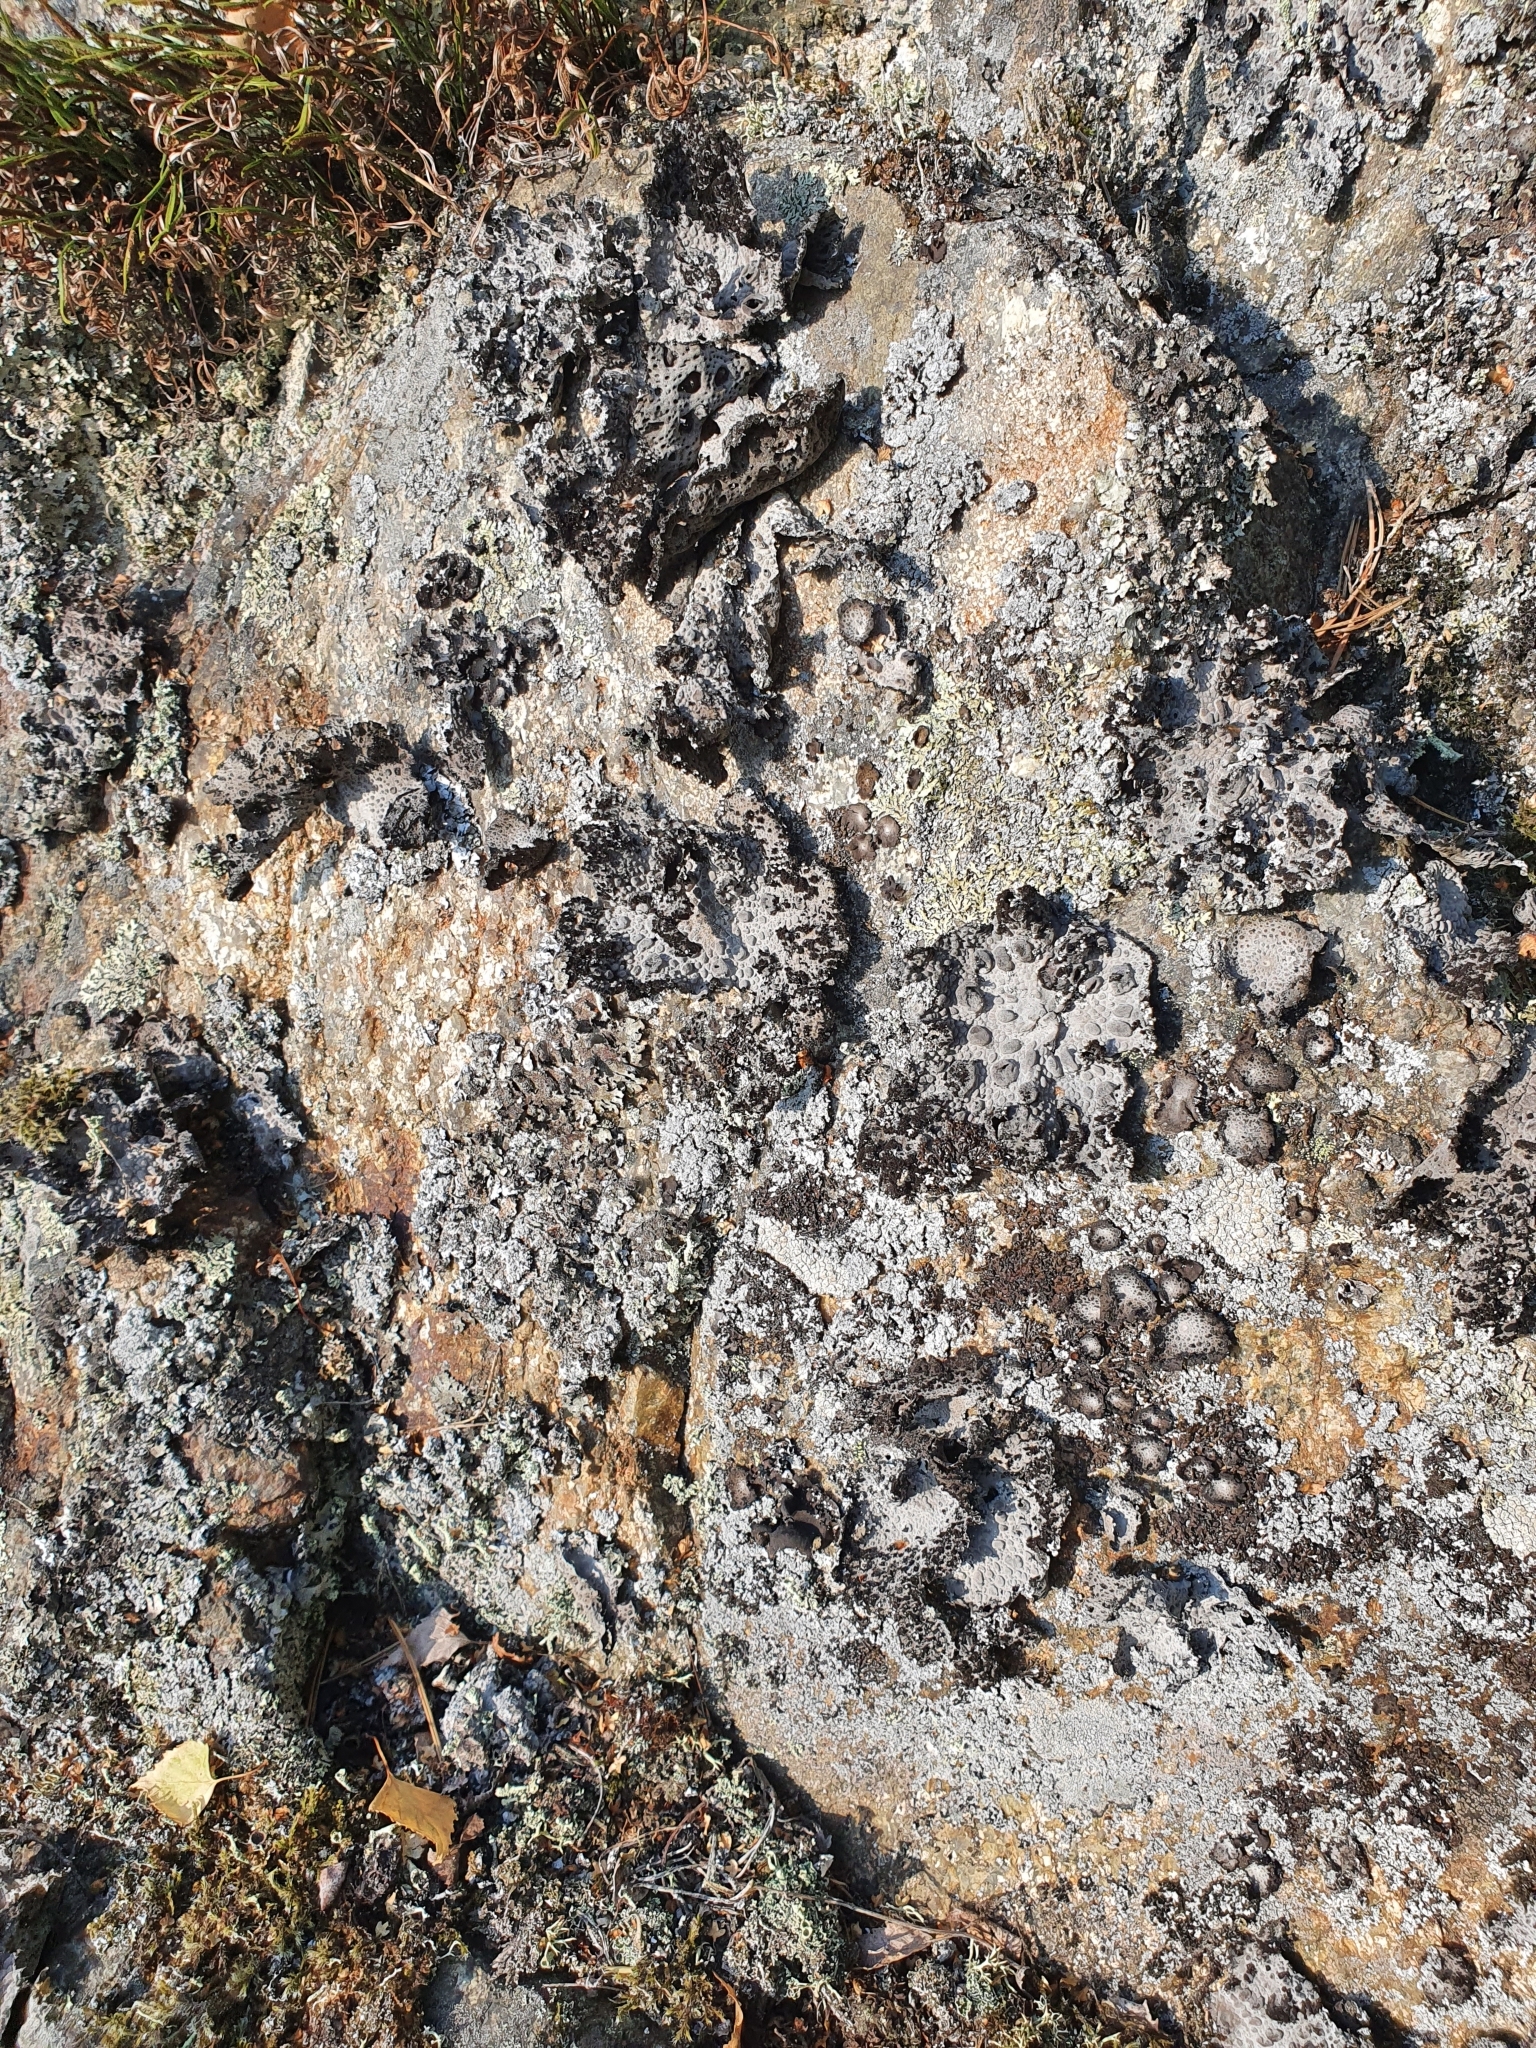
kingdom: Fungi
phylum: Ascomycota
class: Lecanoromycetes
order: Umbilicariales
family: Umbilicariaceae
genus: Lasallia
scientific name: Lasallia pustulata
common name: Blistered toadskin lichen
